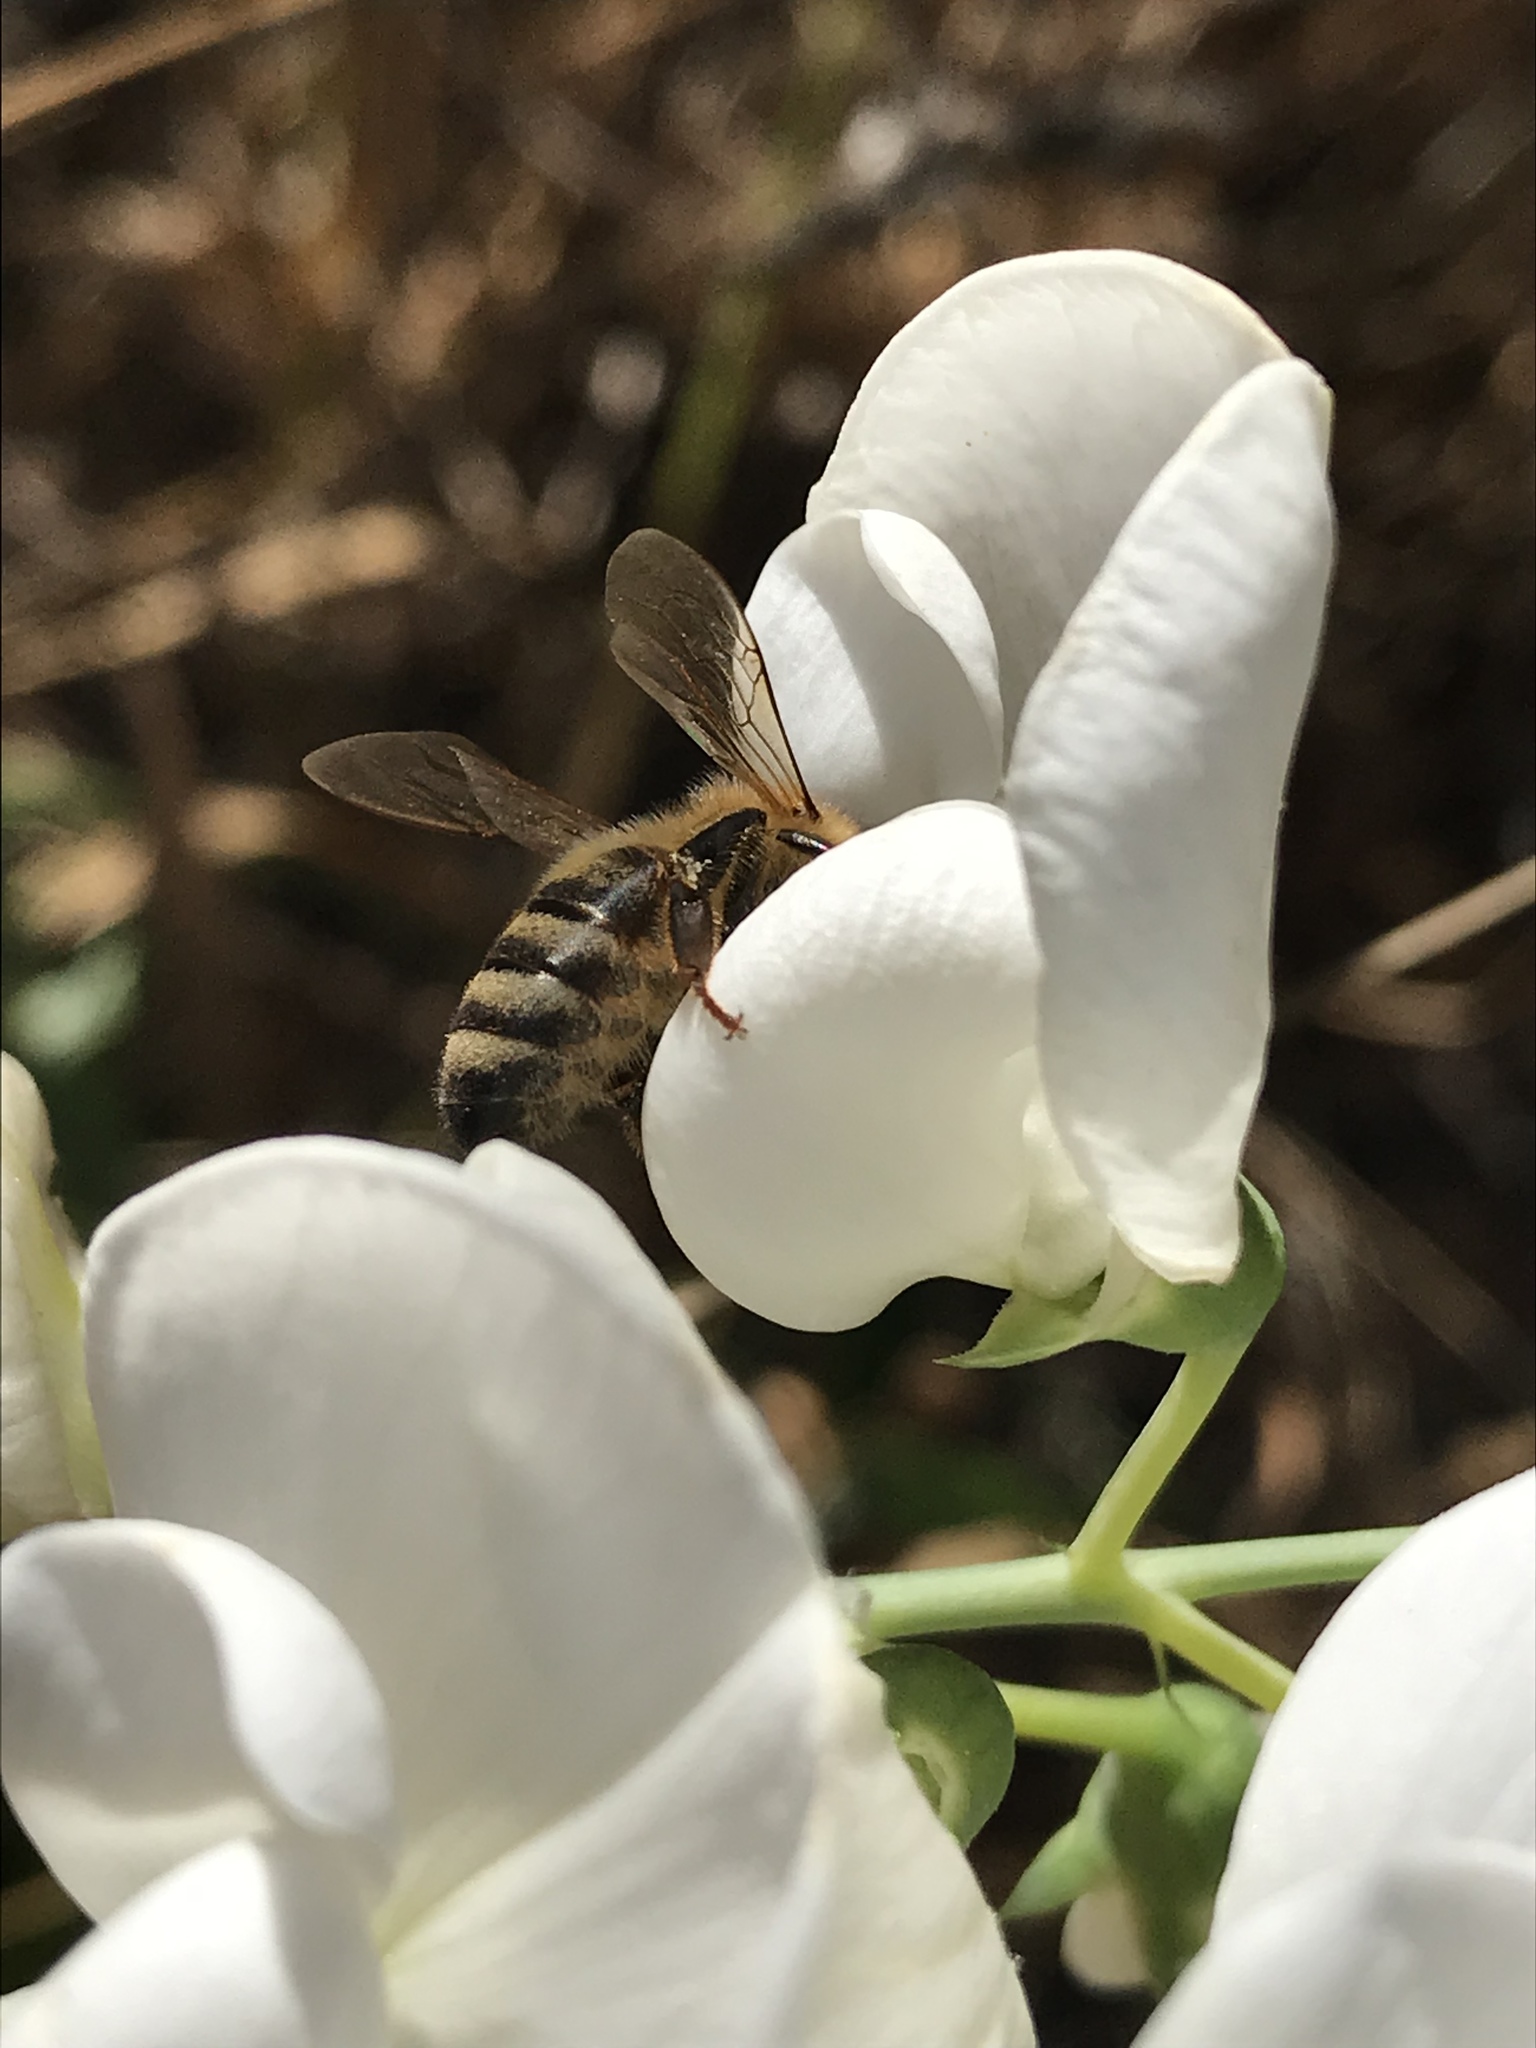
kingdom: Animalia
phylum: Arthropoda
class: Insecta
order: Hymenoptera
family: Apidae
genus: Apis
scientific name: Apis mellifera
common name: Honey bee
